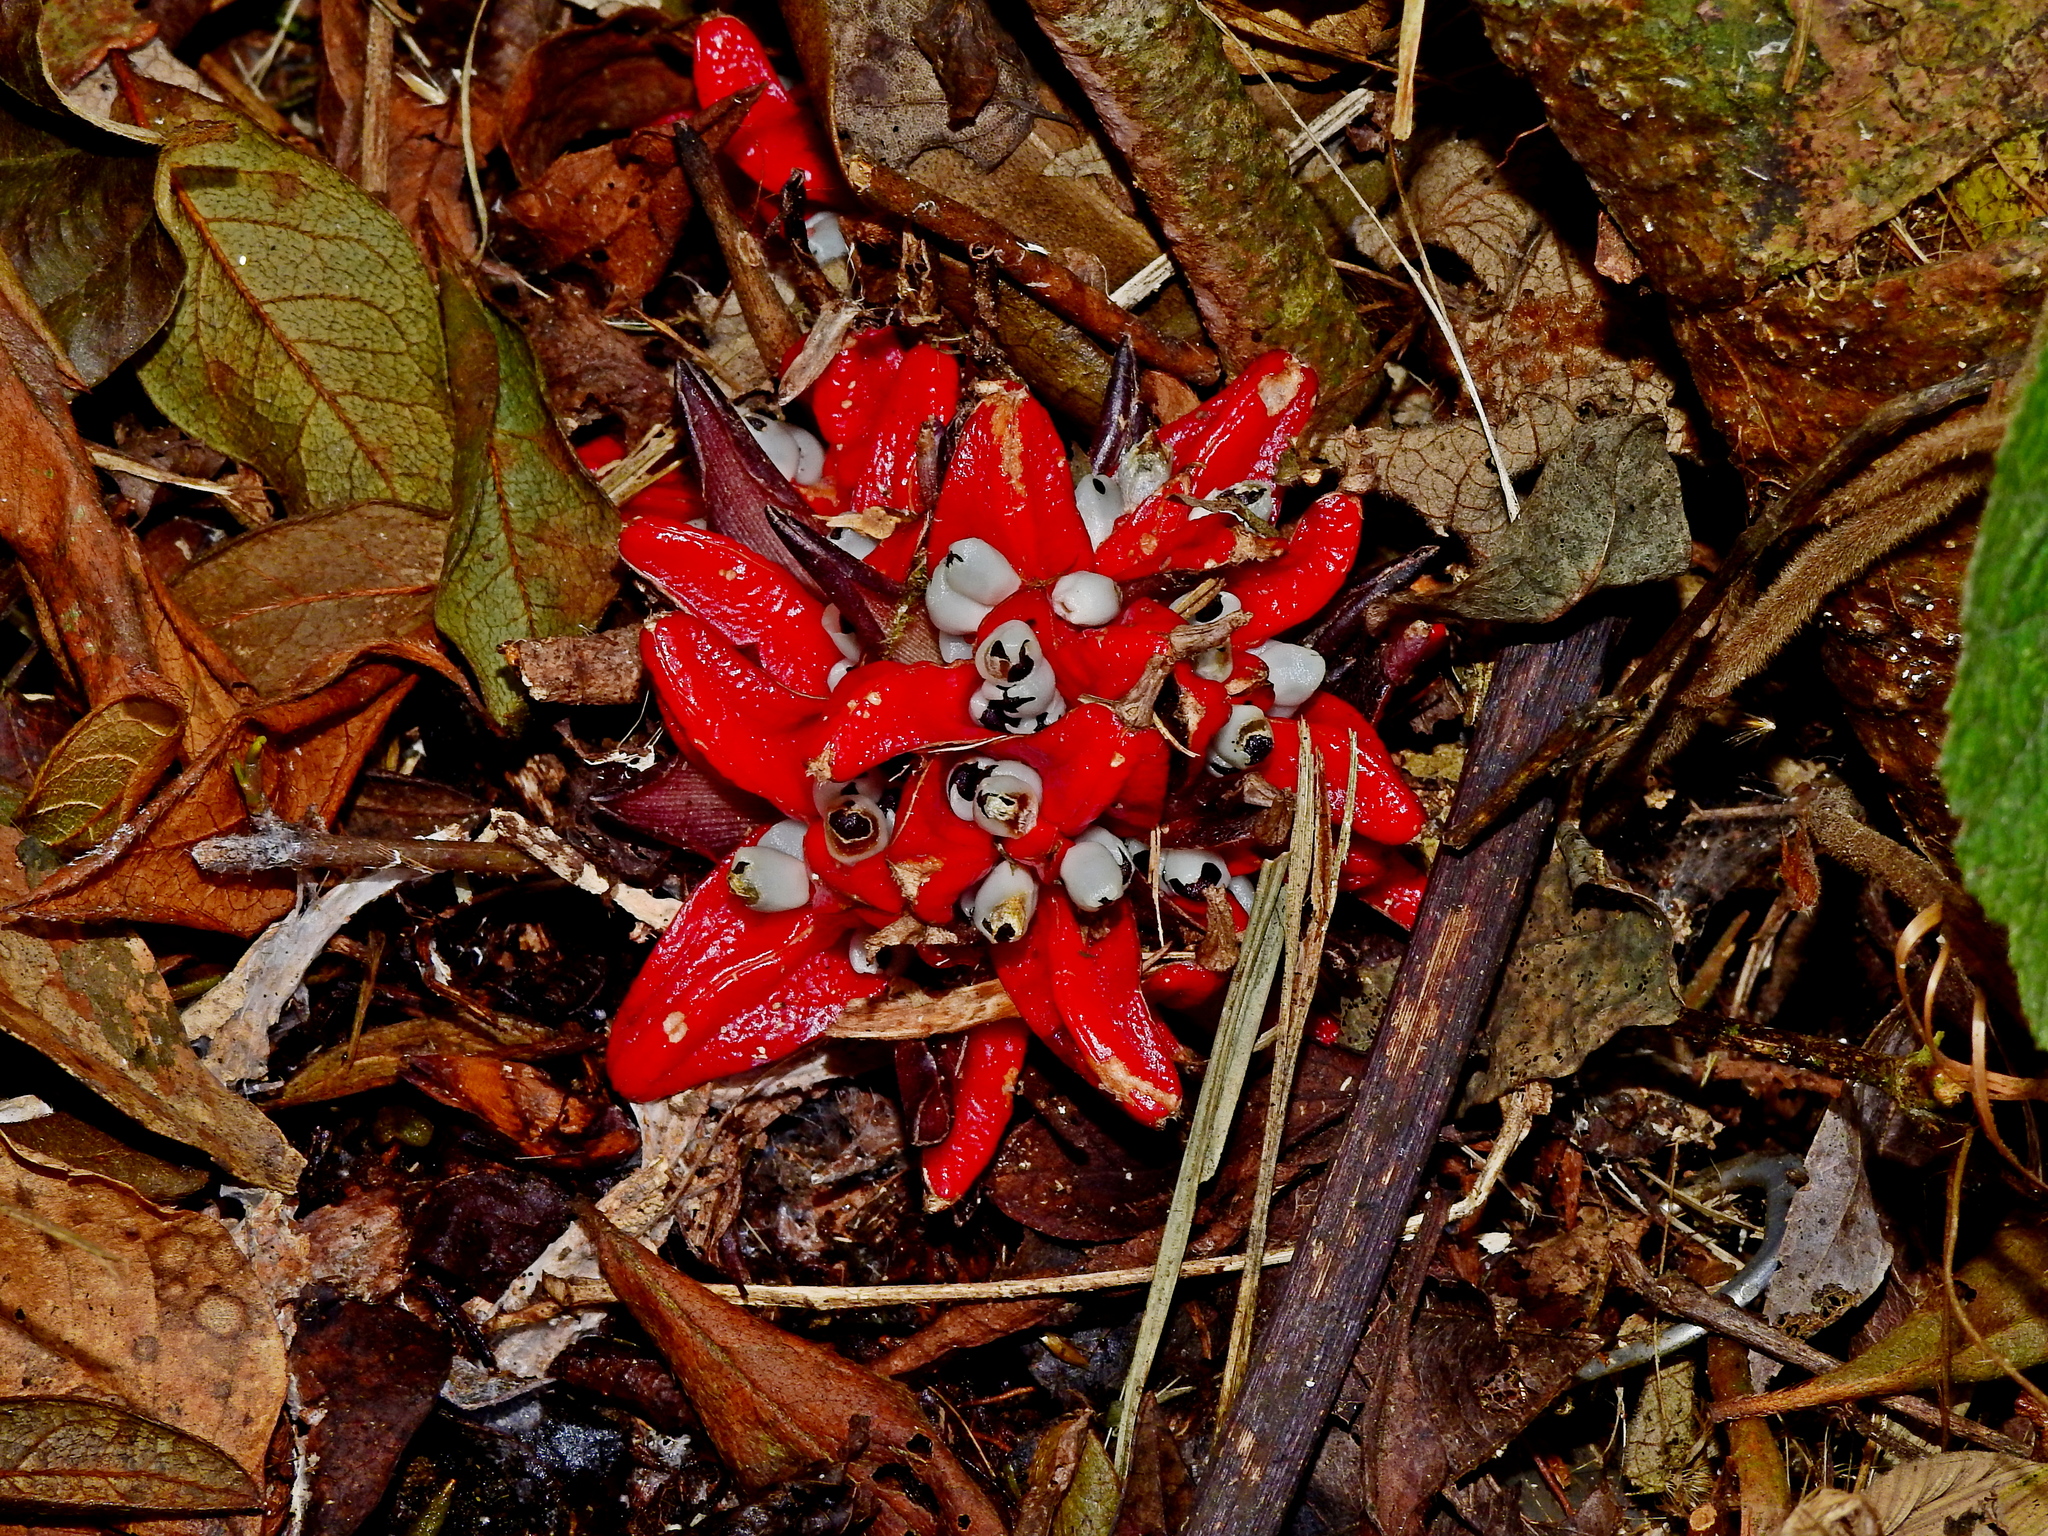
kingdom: Plantae
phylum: Tracheophyta
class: Liliopsida
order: Zingiberales
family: Zingiberaceae
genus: Zingiber
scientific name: Zingiber kawagoii
